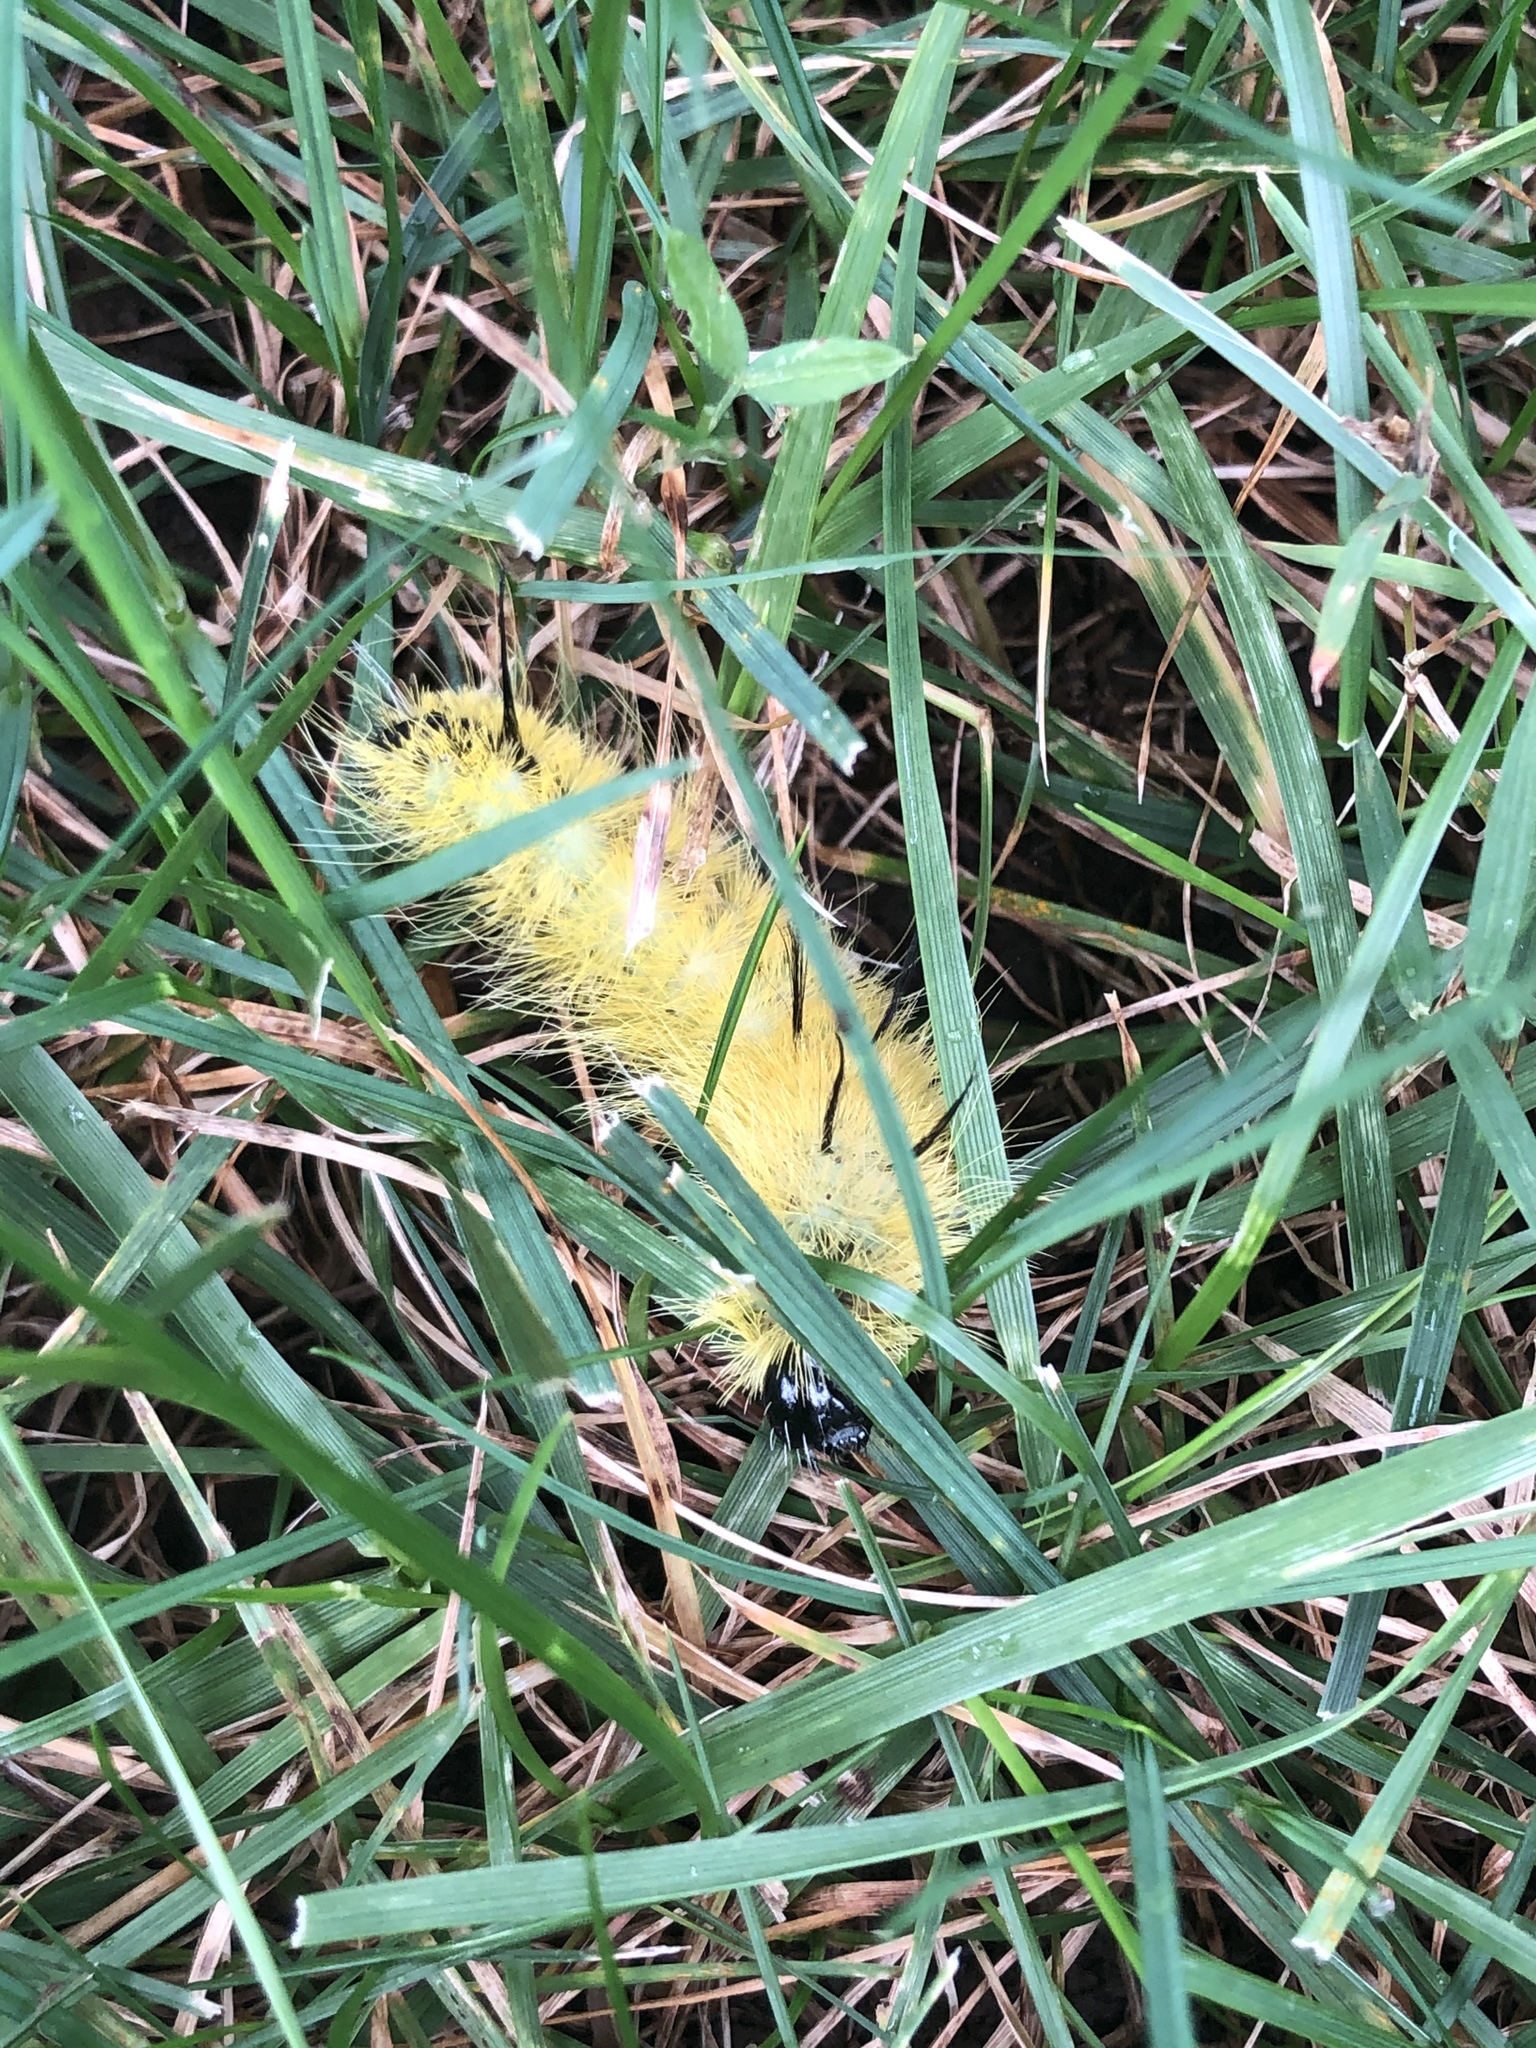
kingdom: Animalia
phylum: Arthropoda
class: Insecta
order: Lepidoptera
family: Noctuidae
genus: Acronicta
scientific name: Acronicta americana
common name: American dagger
